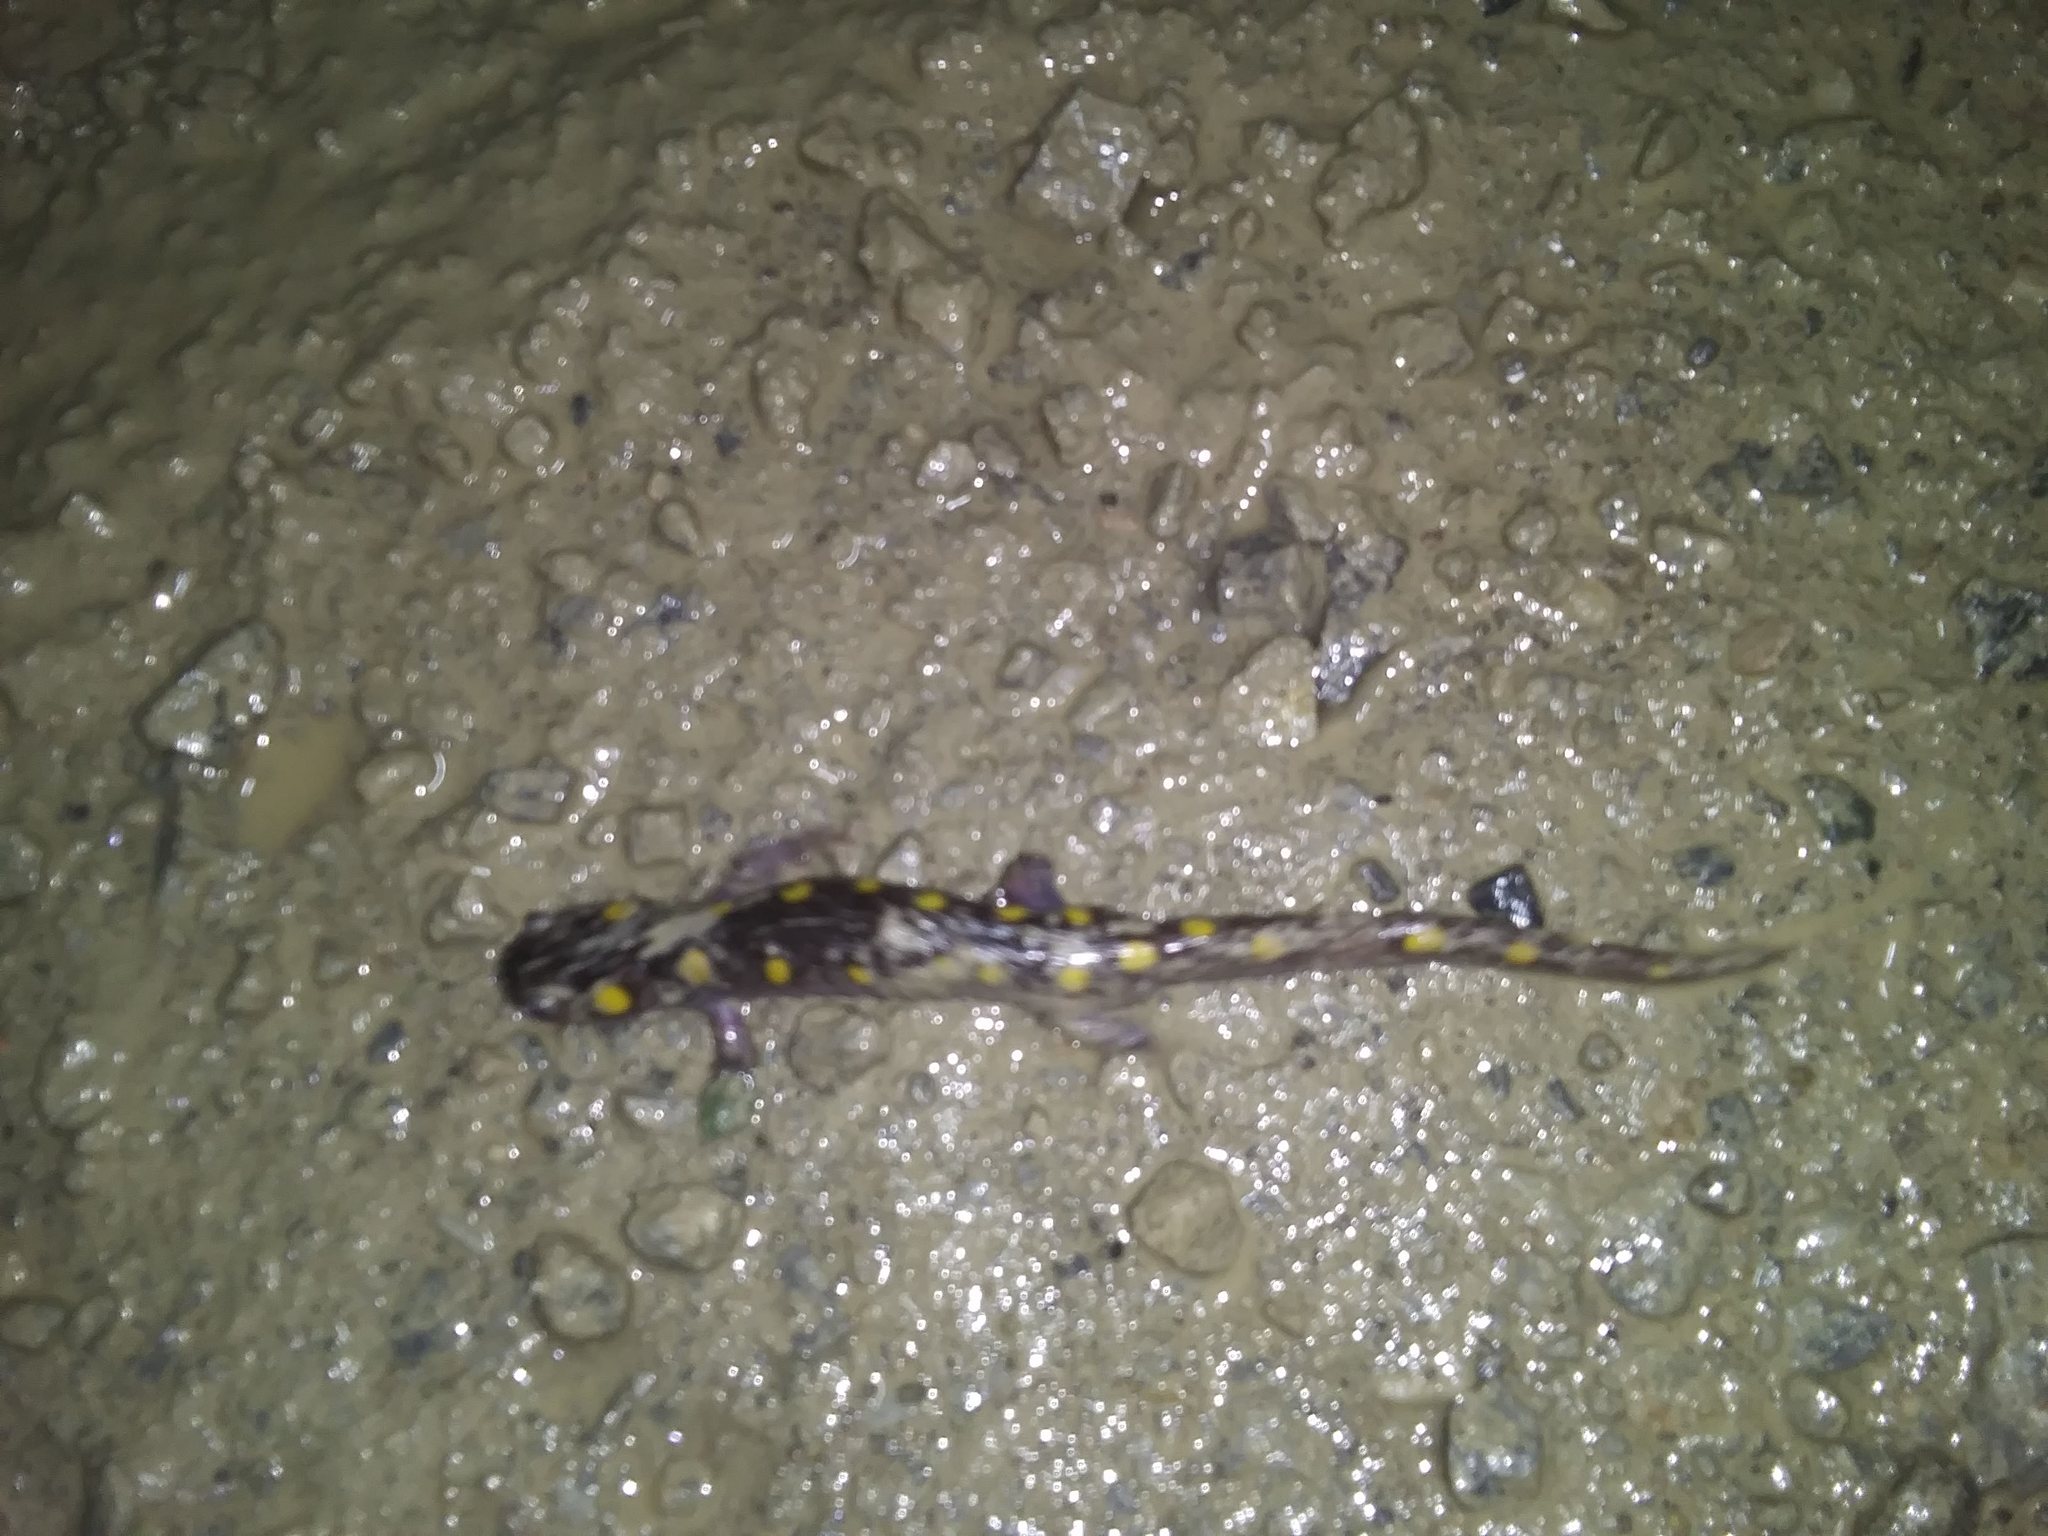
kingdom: Animalia
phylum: Chordata
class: Amphibia
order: Caudata
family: Ambystomatidae
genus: Ambystoma
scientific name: Ambystoma maculatum
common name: Spotted salamander
